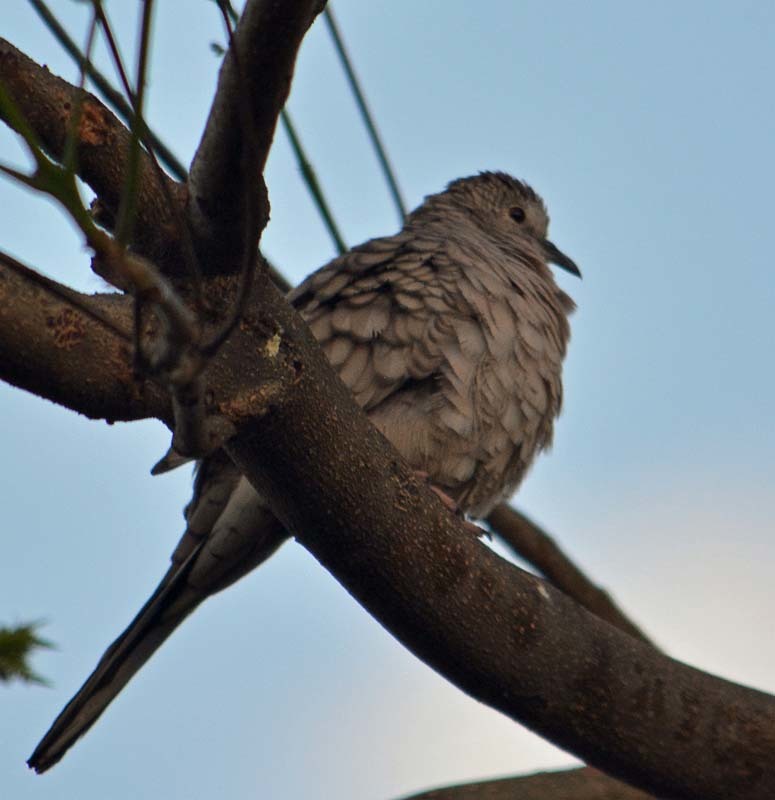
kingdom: Animalia
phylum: Chordata
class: Aves
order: Columbiformes
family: Columbidae
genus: Columbina
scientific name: Columbina inca
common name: Inca dove
